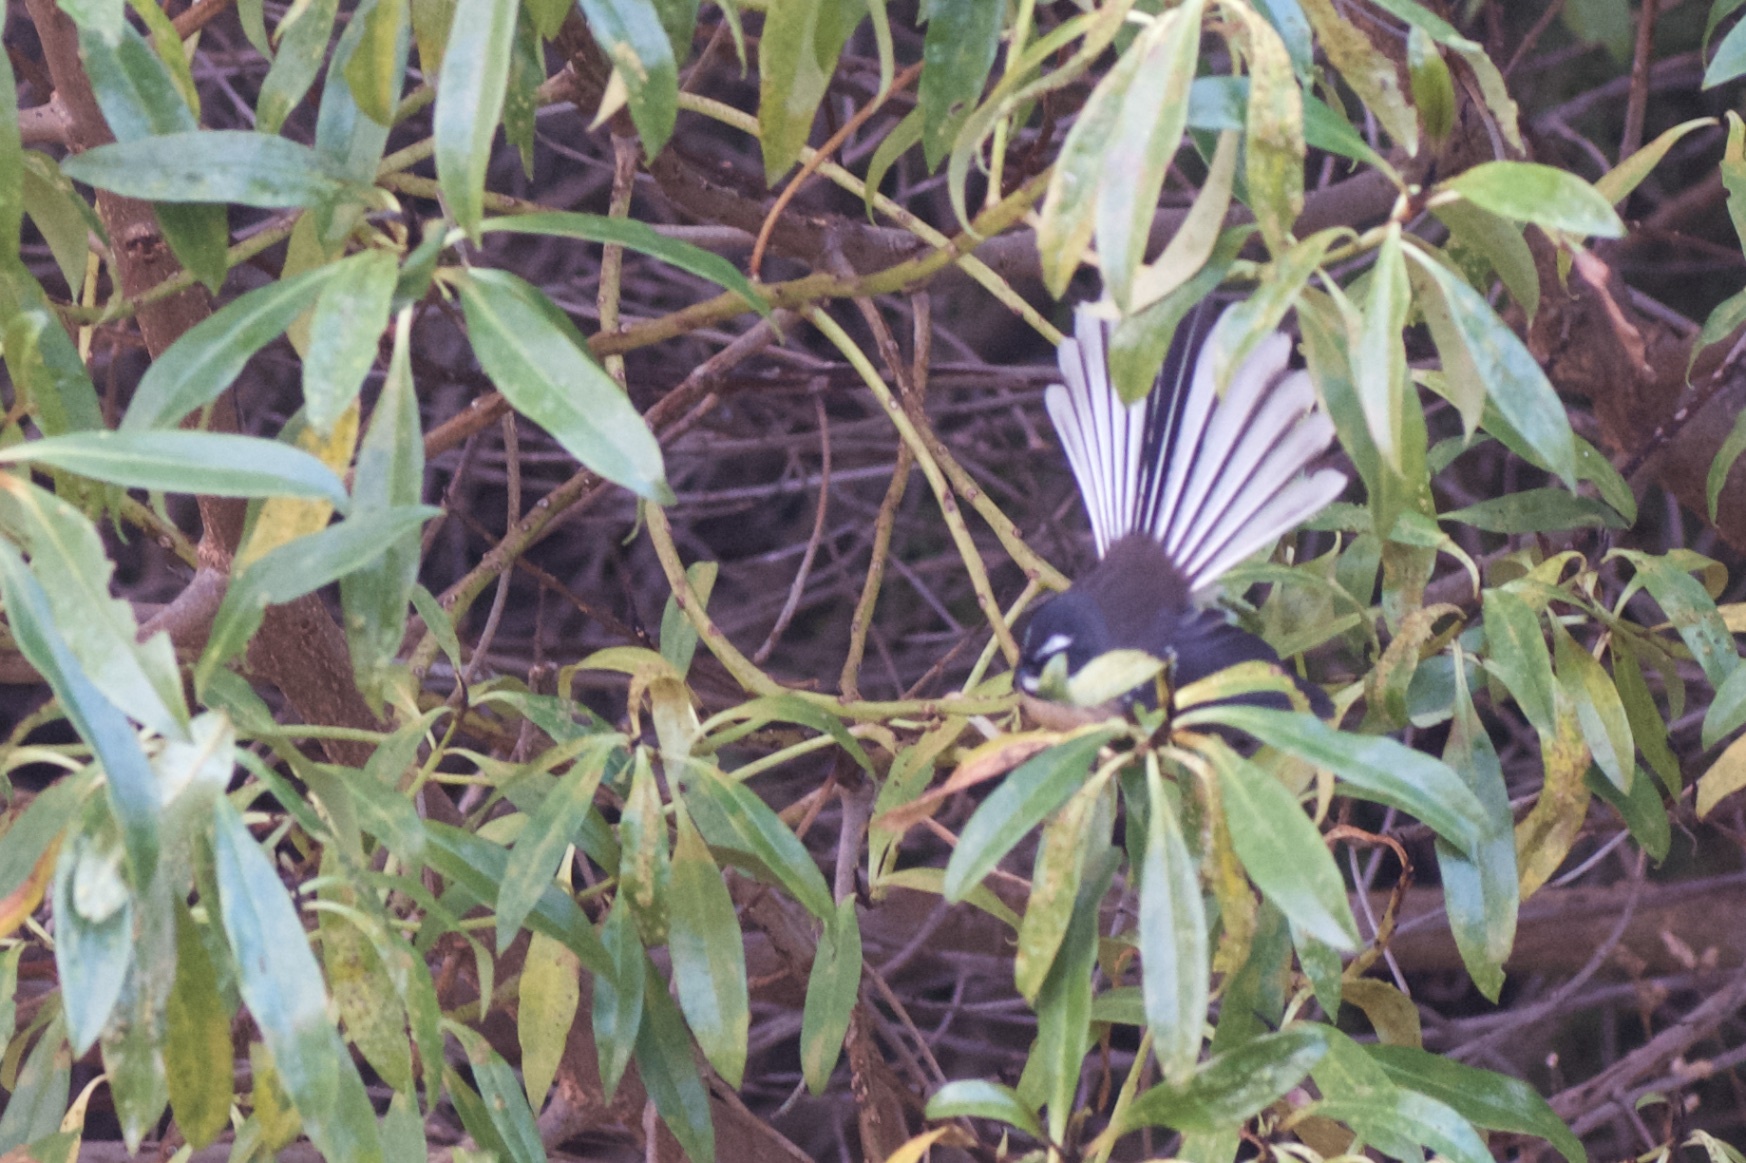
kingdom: Animalia
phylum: Chordata
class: Aves
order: Passeriformes
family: Rhipiduridae
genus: Rhipidura
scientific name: Rhipidura fuliginosa
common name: New zealand fantail
